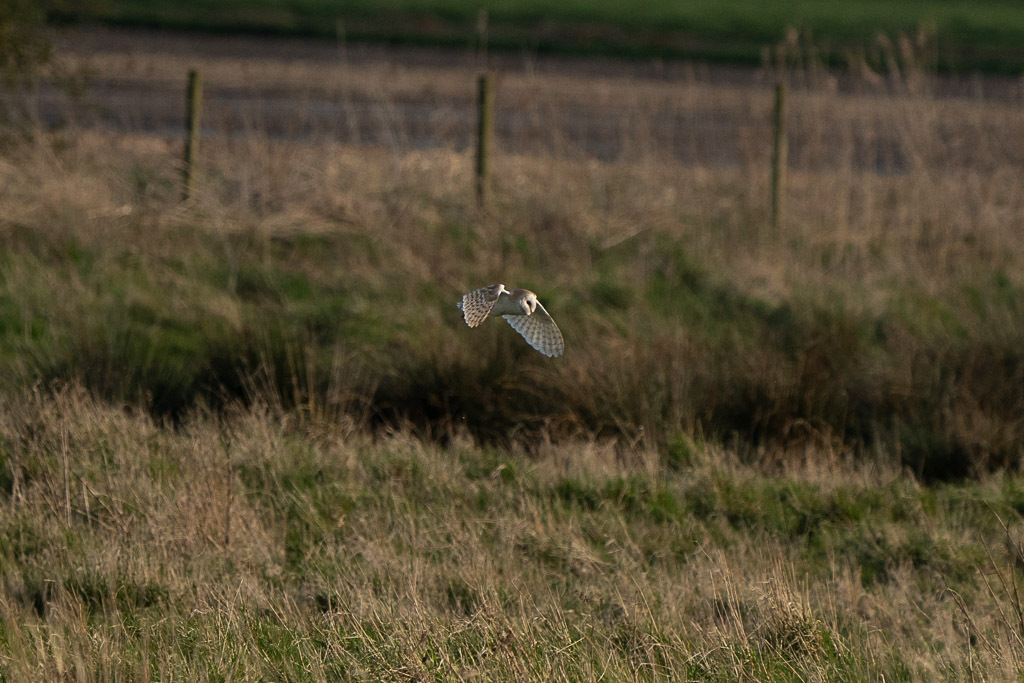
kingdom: Animalia
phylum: Chordata
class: Aves
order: Strigiformes
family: Tytonidae
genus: Tyto
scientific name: Tyto alba
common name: Barn owl
